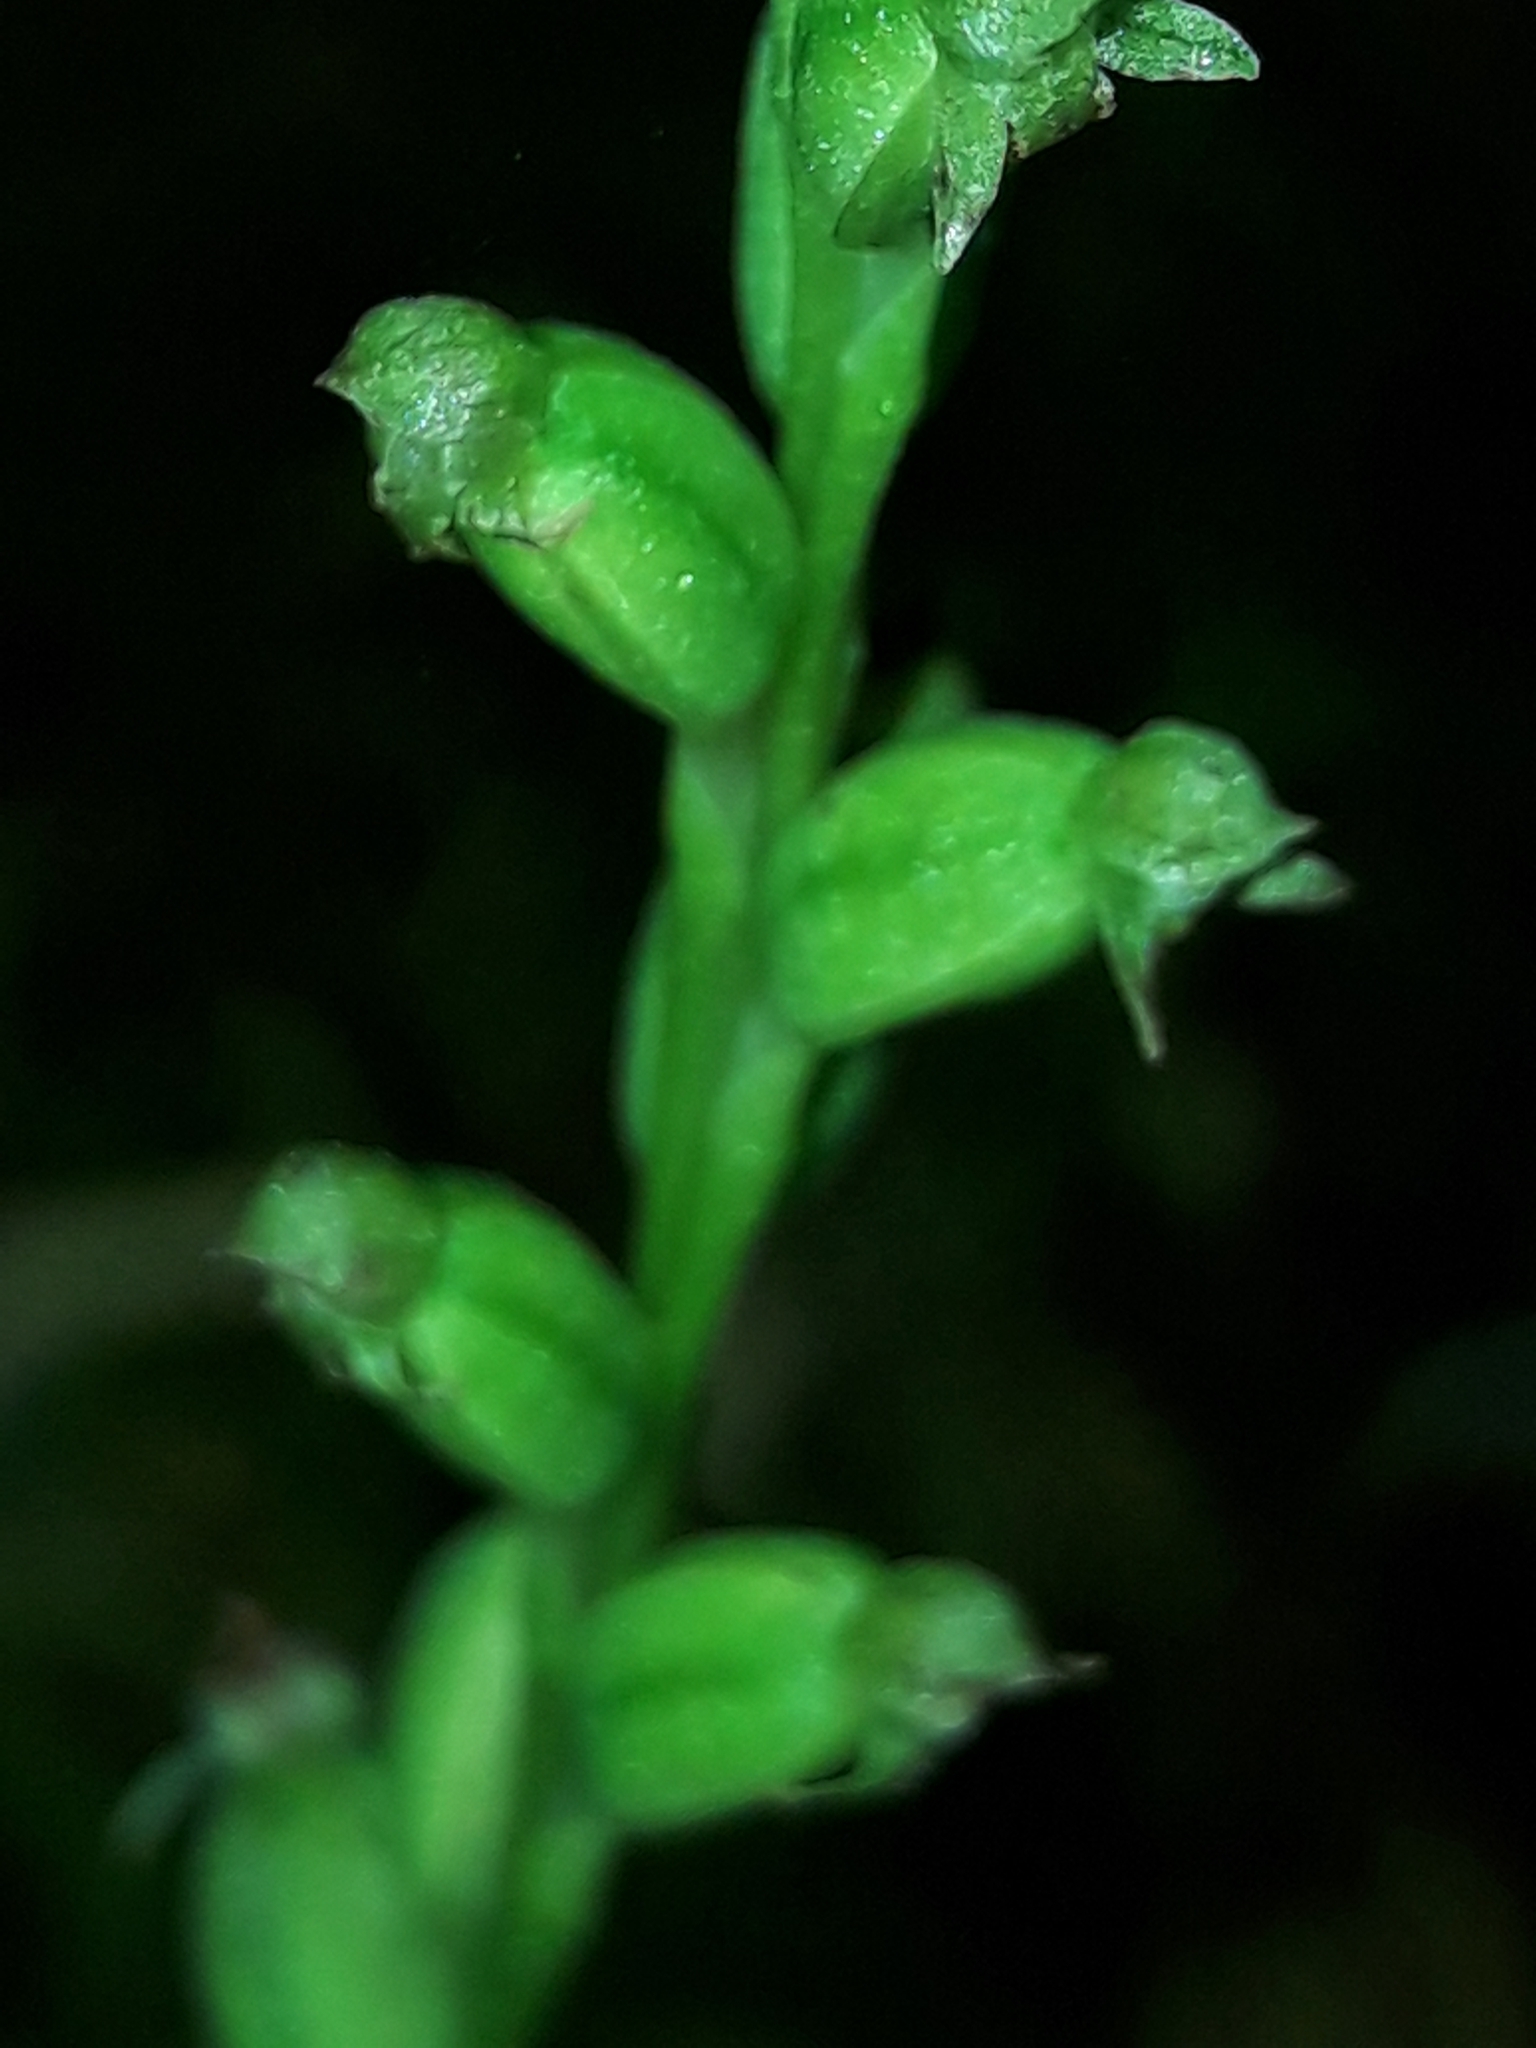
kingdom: Plantae
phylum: Tracheophyta
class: Liliopsida
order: Asparagales
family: Orchidaceae
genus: Microtis
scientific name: Microtis unifolia
